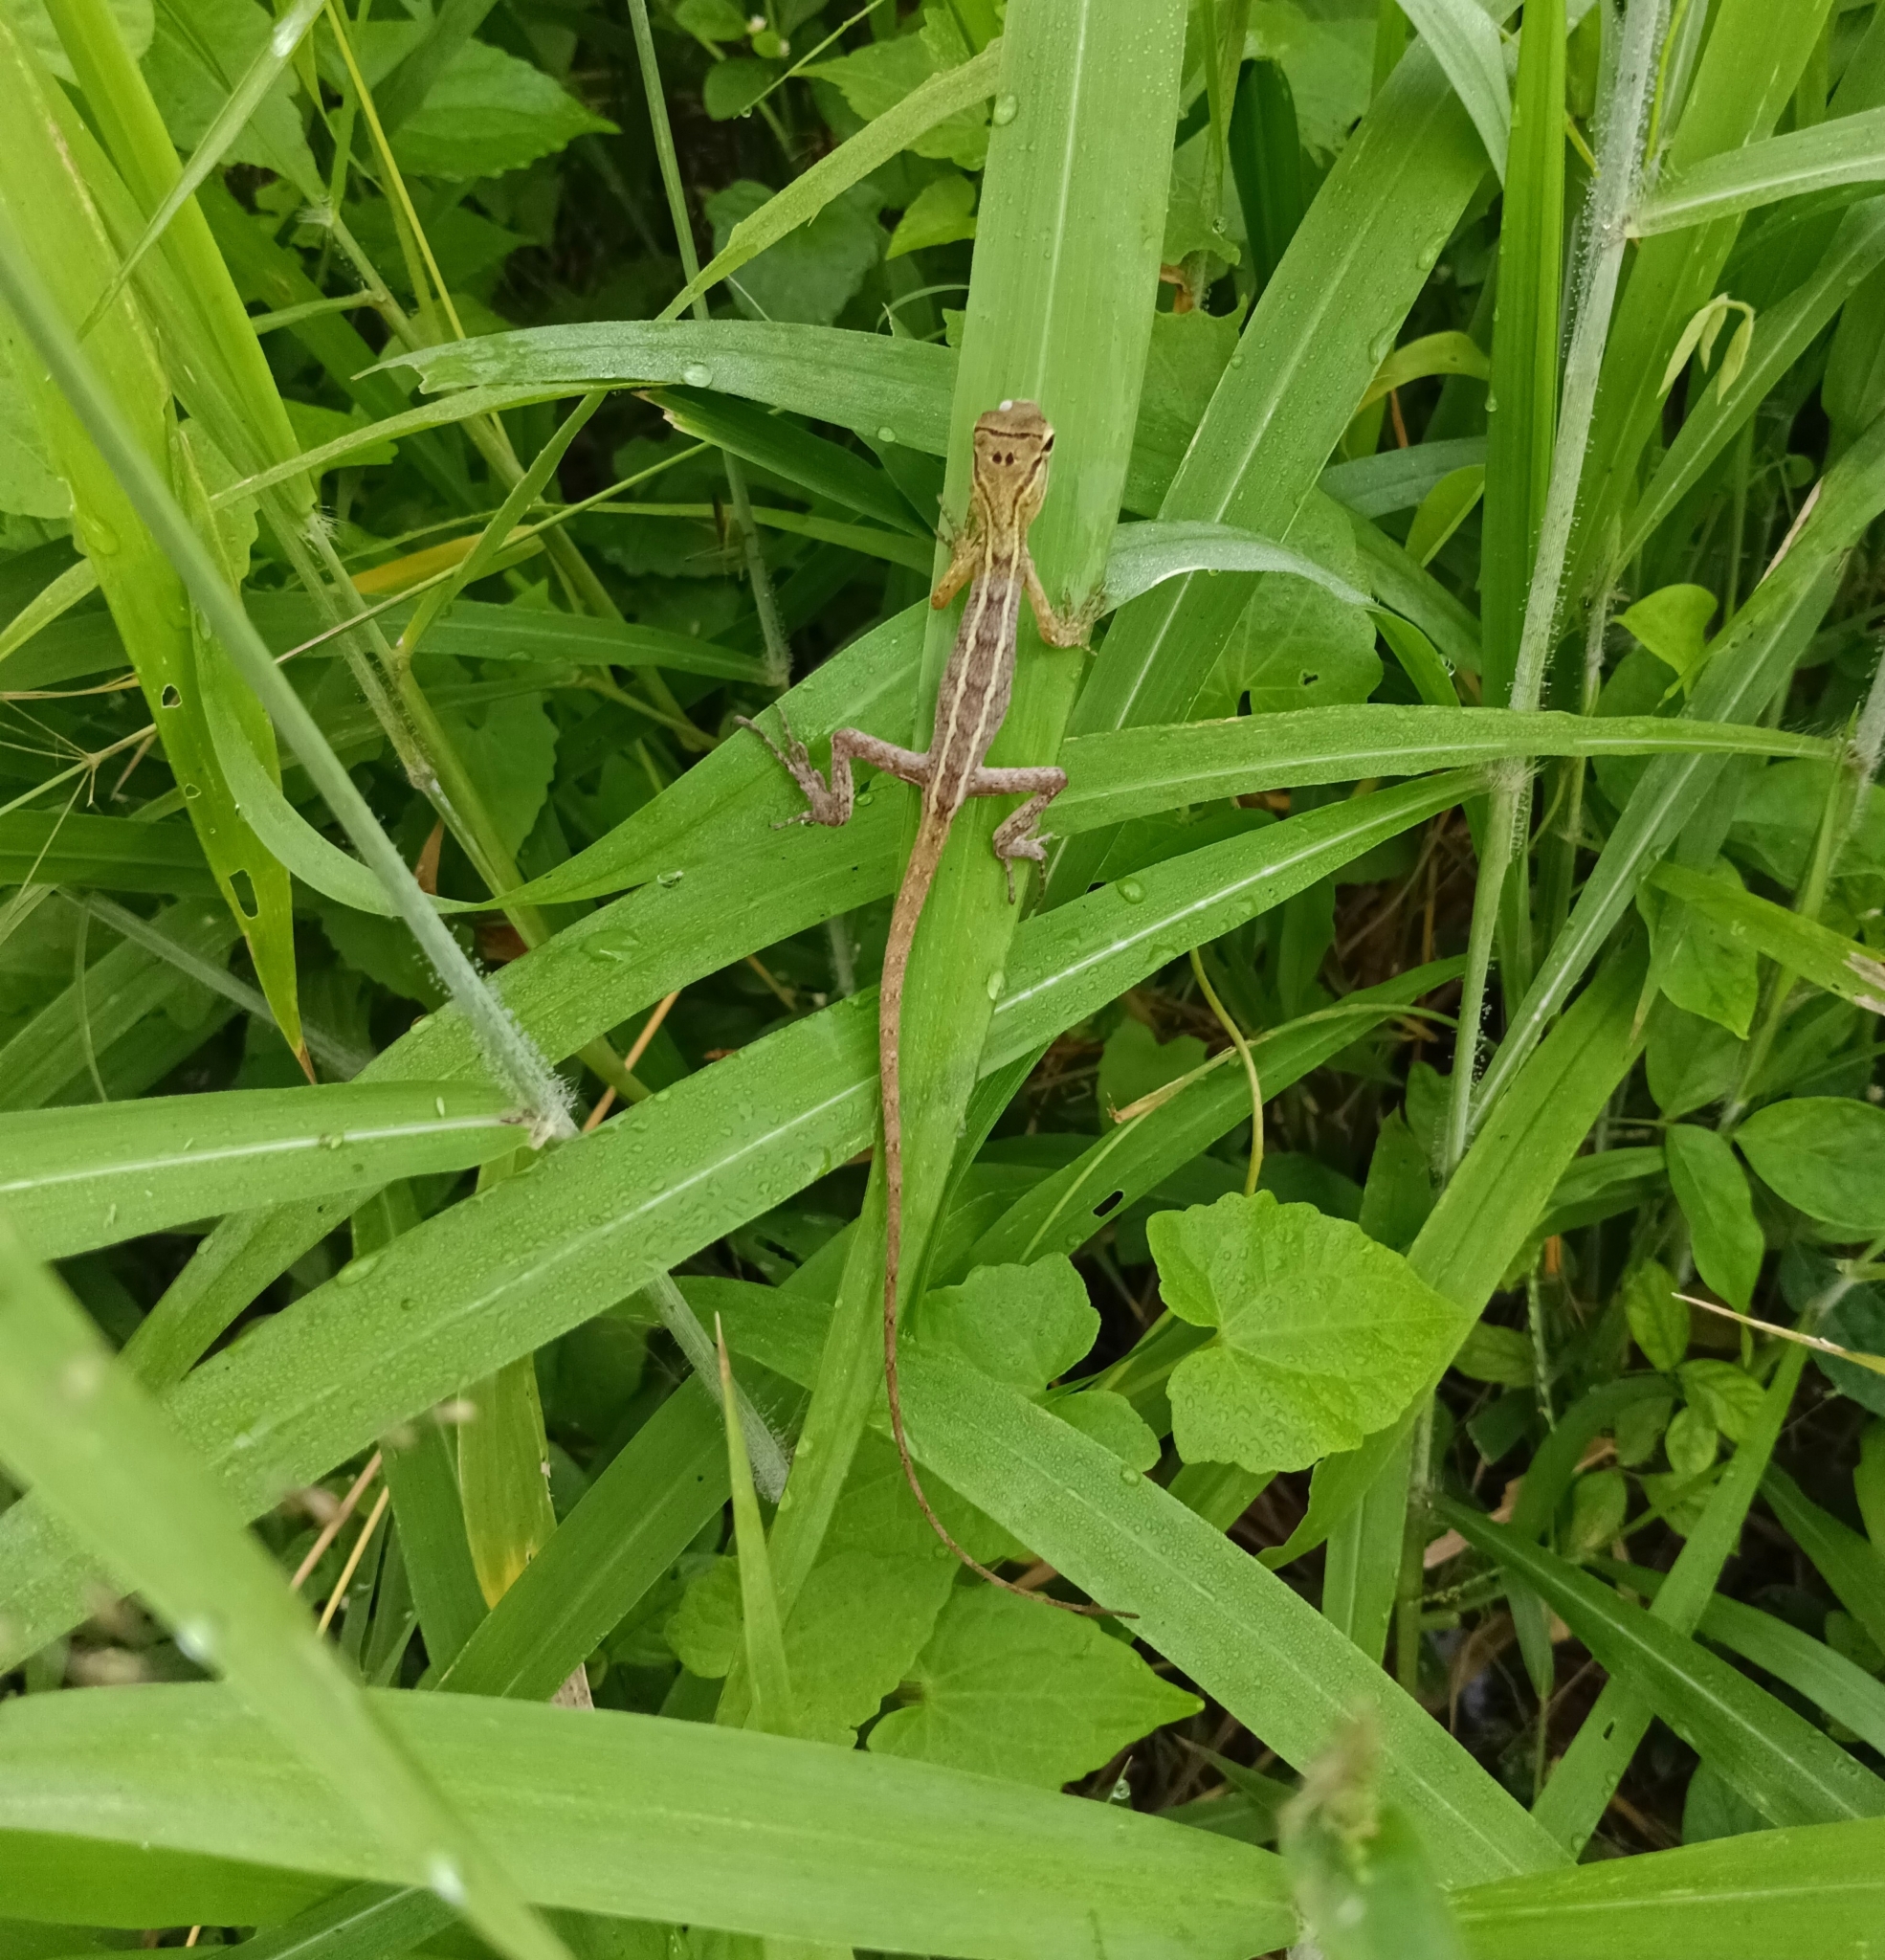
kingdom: Animalia
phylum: Chordata
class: Squamata
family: Agamidae
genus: Calotes
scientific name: Calotes versicolor
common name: Oriental garden lizard
